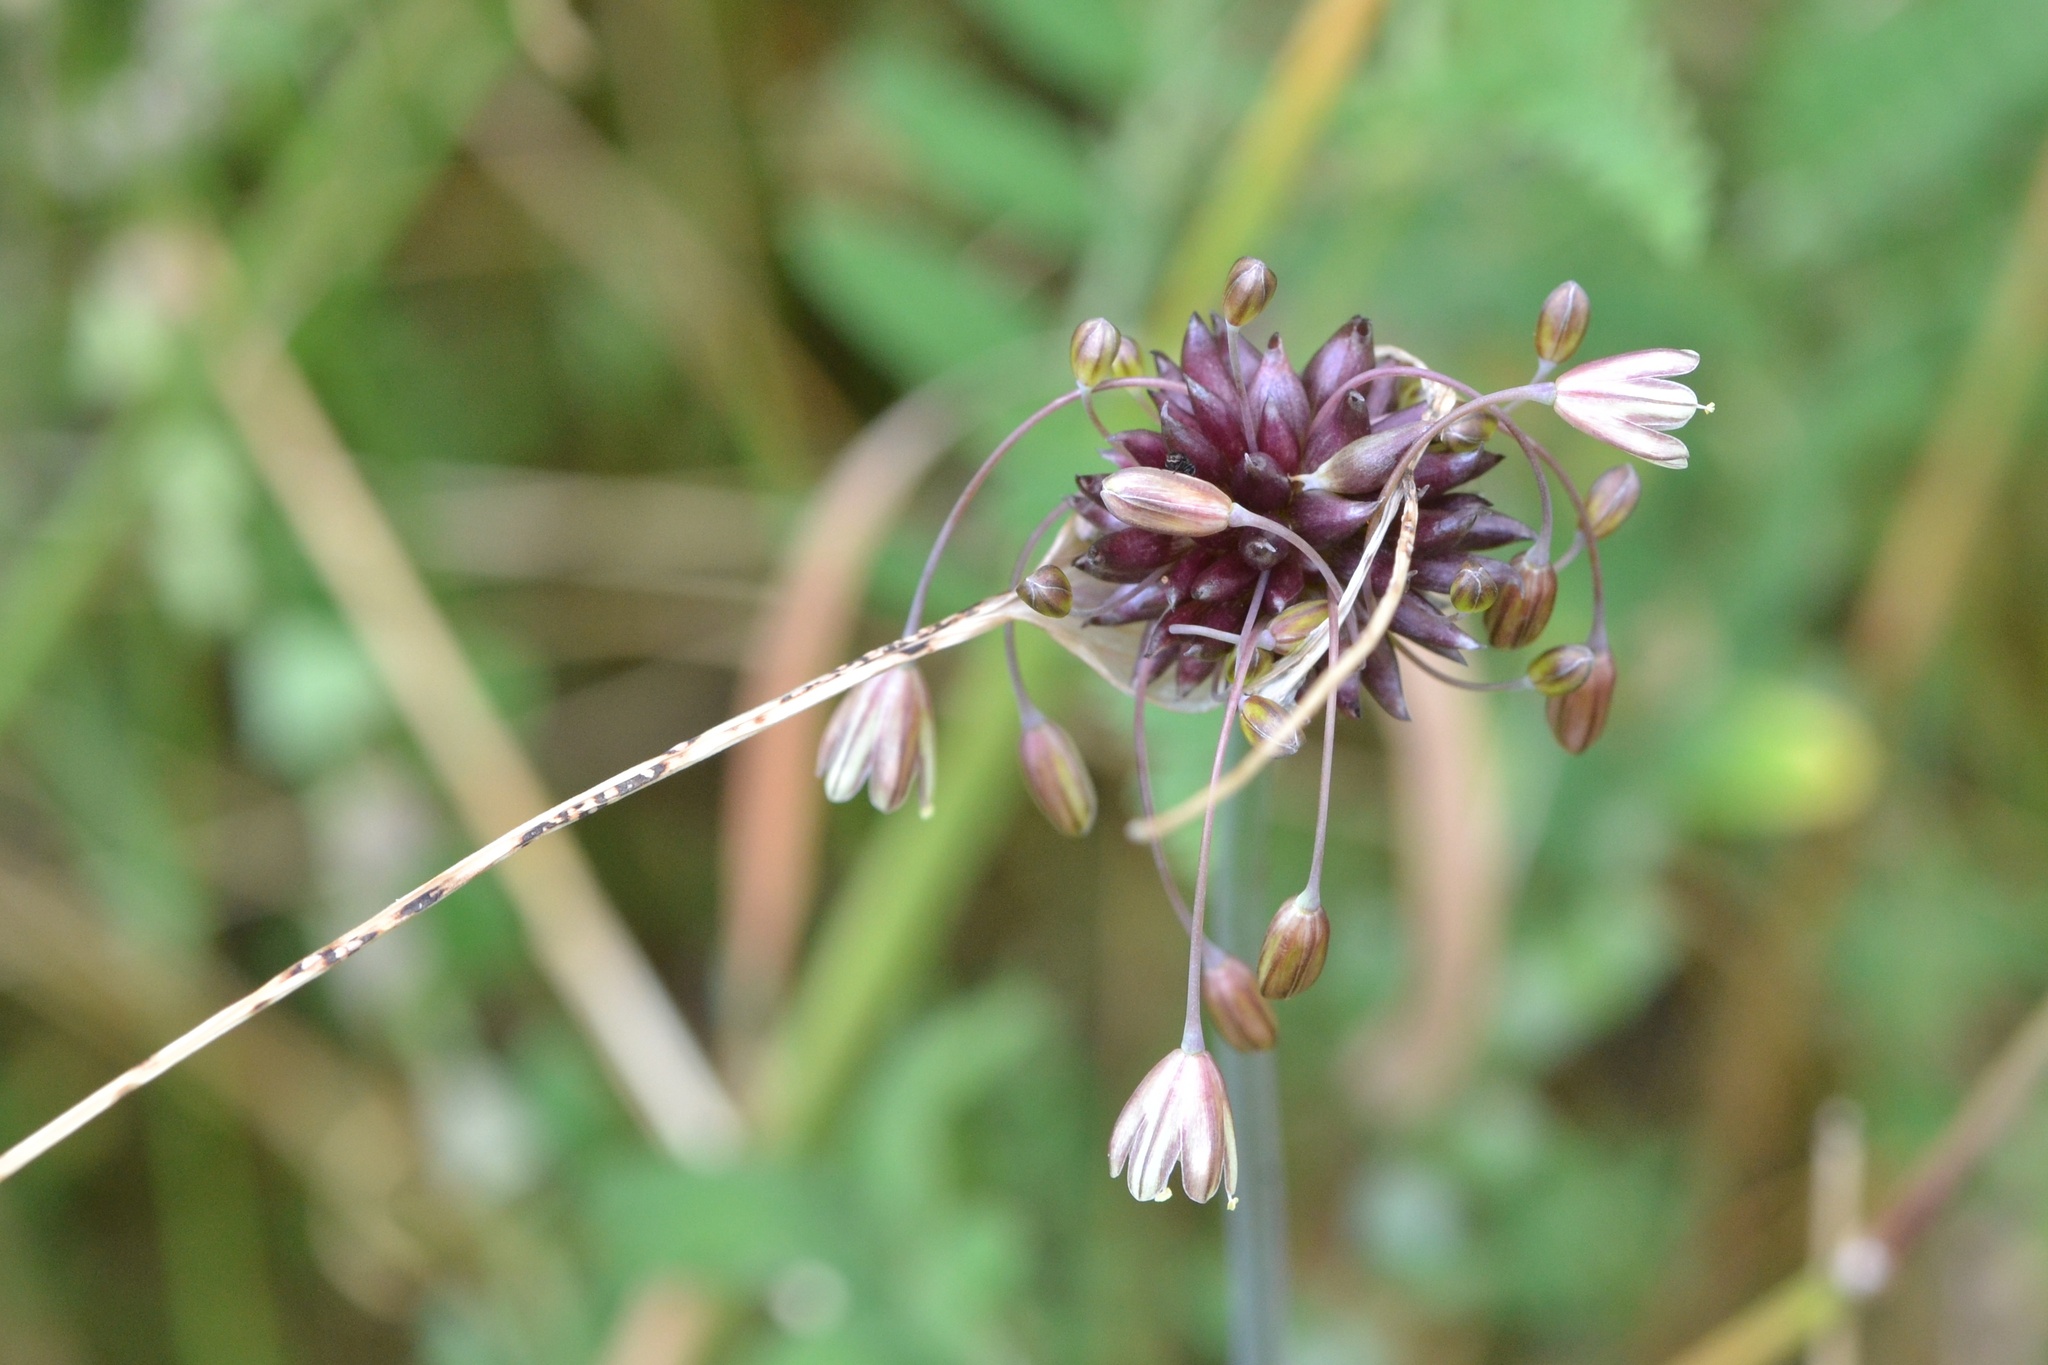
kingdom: Plantae
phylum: Tracheophyta
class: Liliopsida
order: Asparagales
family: Amaryllidaceae
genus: Allium
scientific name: Allium oleraceum
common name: Field garlic
